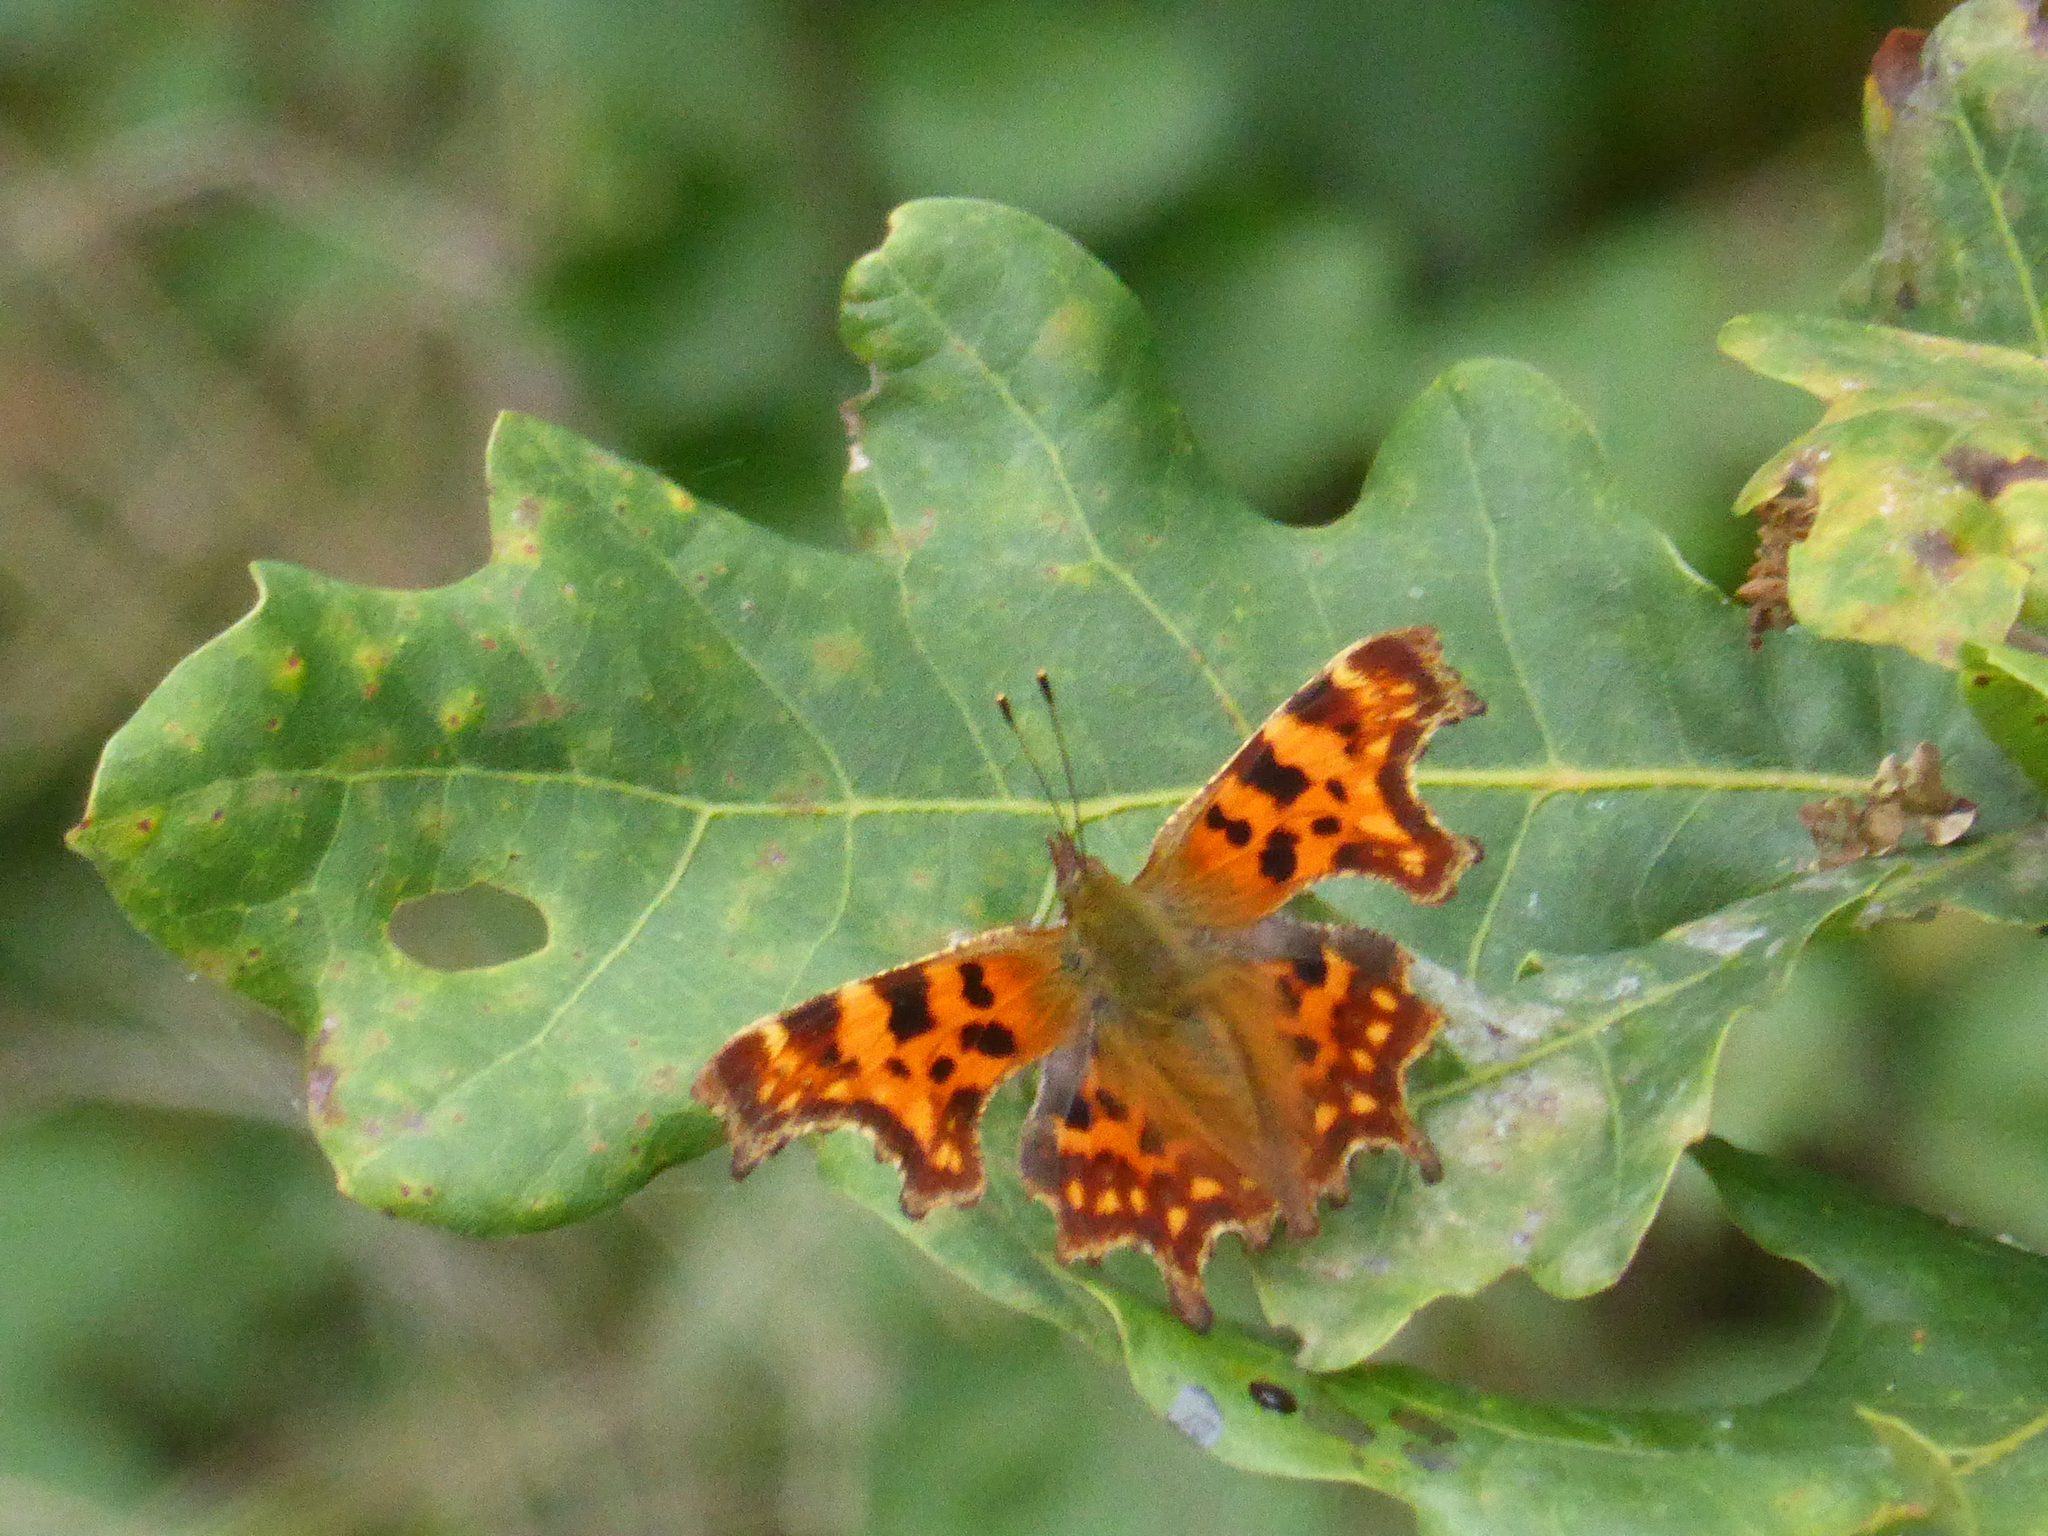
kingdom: Animalia
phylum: Arthropoda
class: Insecta
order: Lepidoptera
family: Nymphalidae
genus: Polygonia
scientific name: Polygonia c-album
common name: Comma
